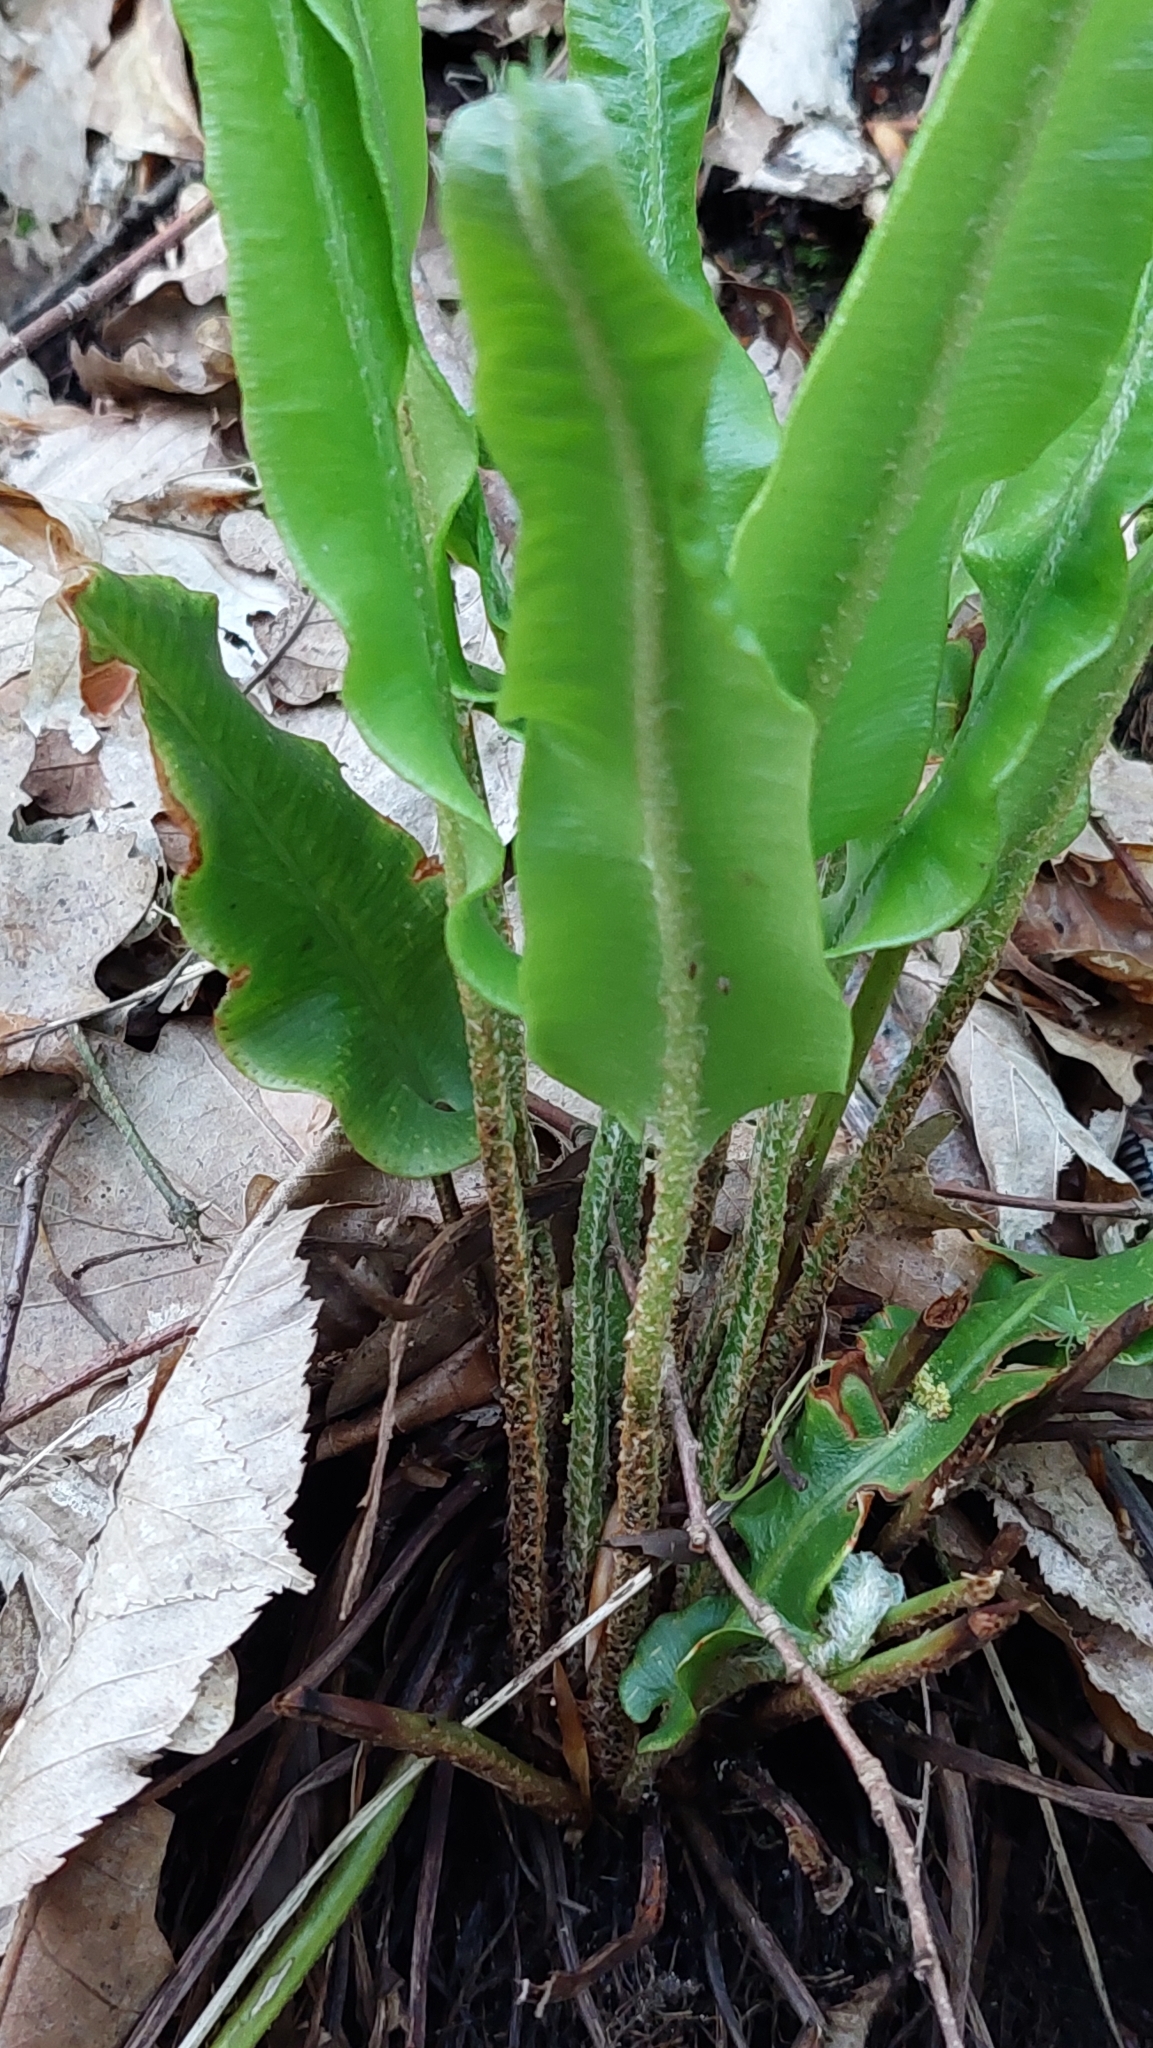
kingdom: Plantae
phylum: Tracheophyta
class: Polypodiopsida
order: Polypodiales
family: Aspleniaceae
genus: Asplenium
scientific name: Asplenium scolopendrium
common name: Hart's-tongue fern
